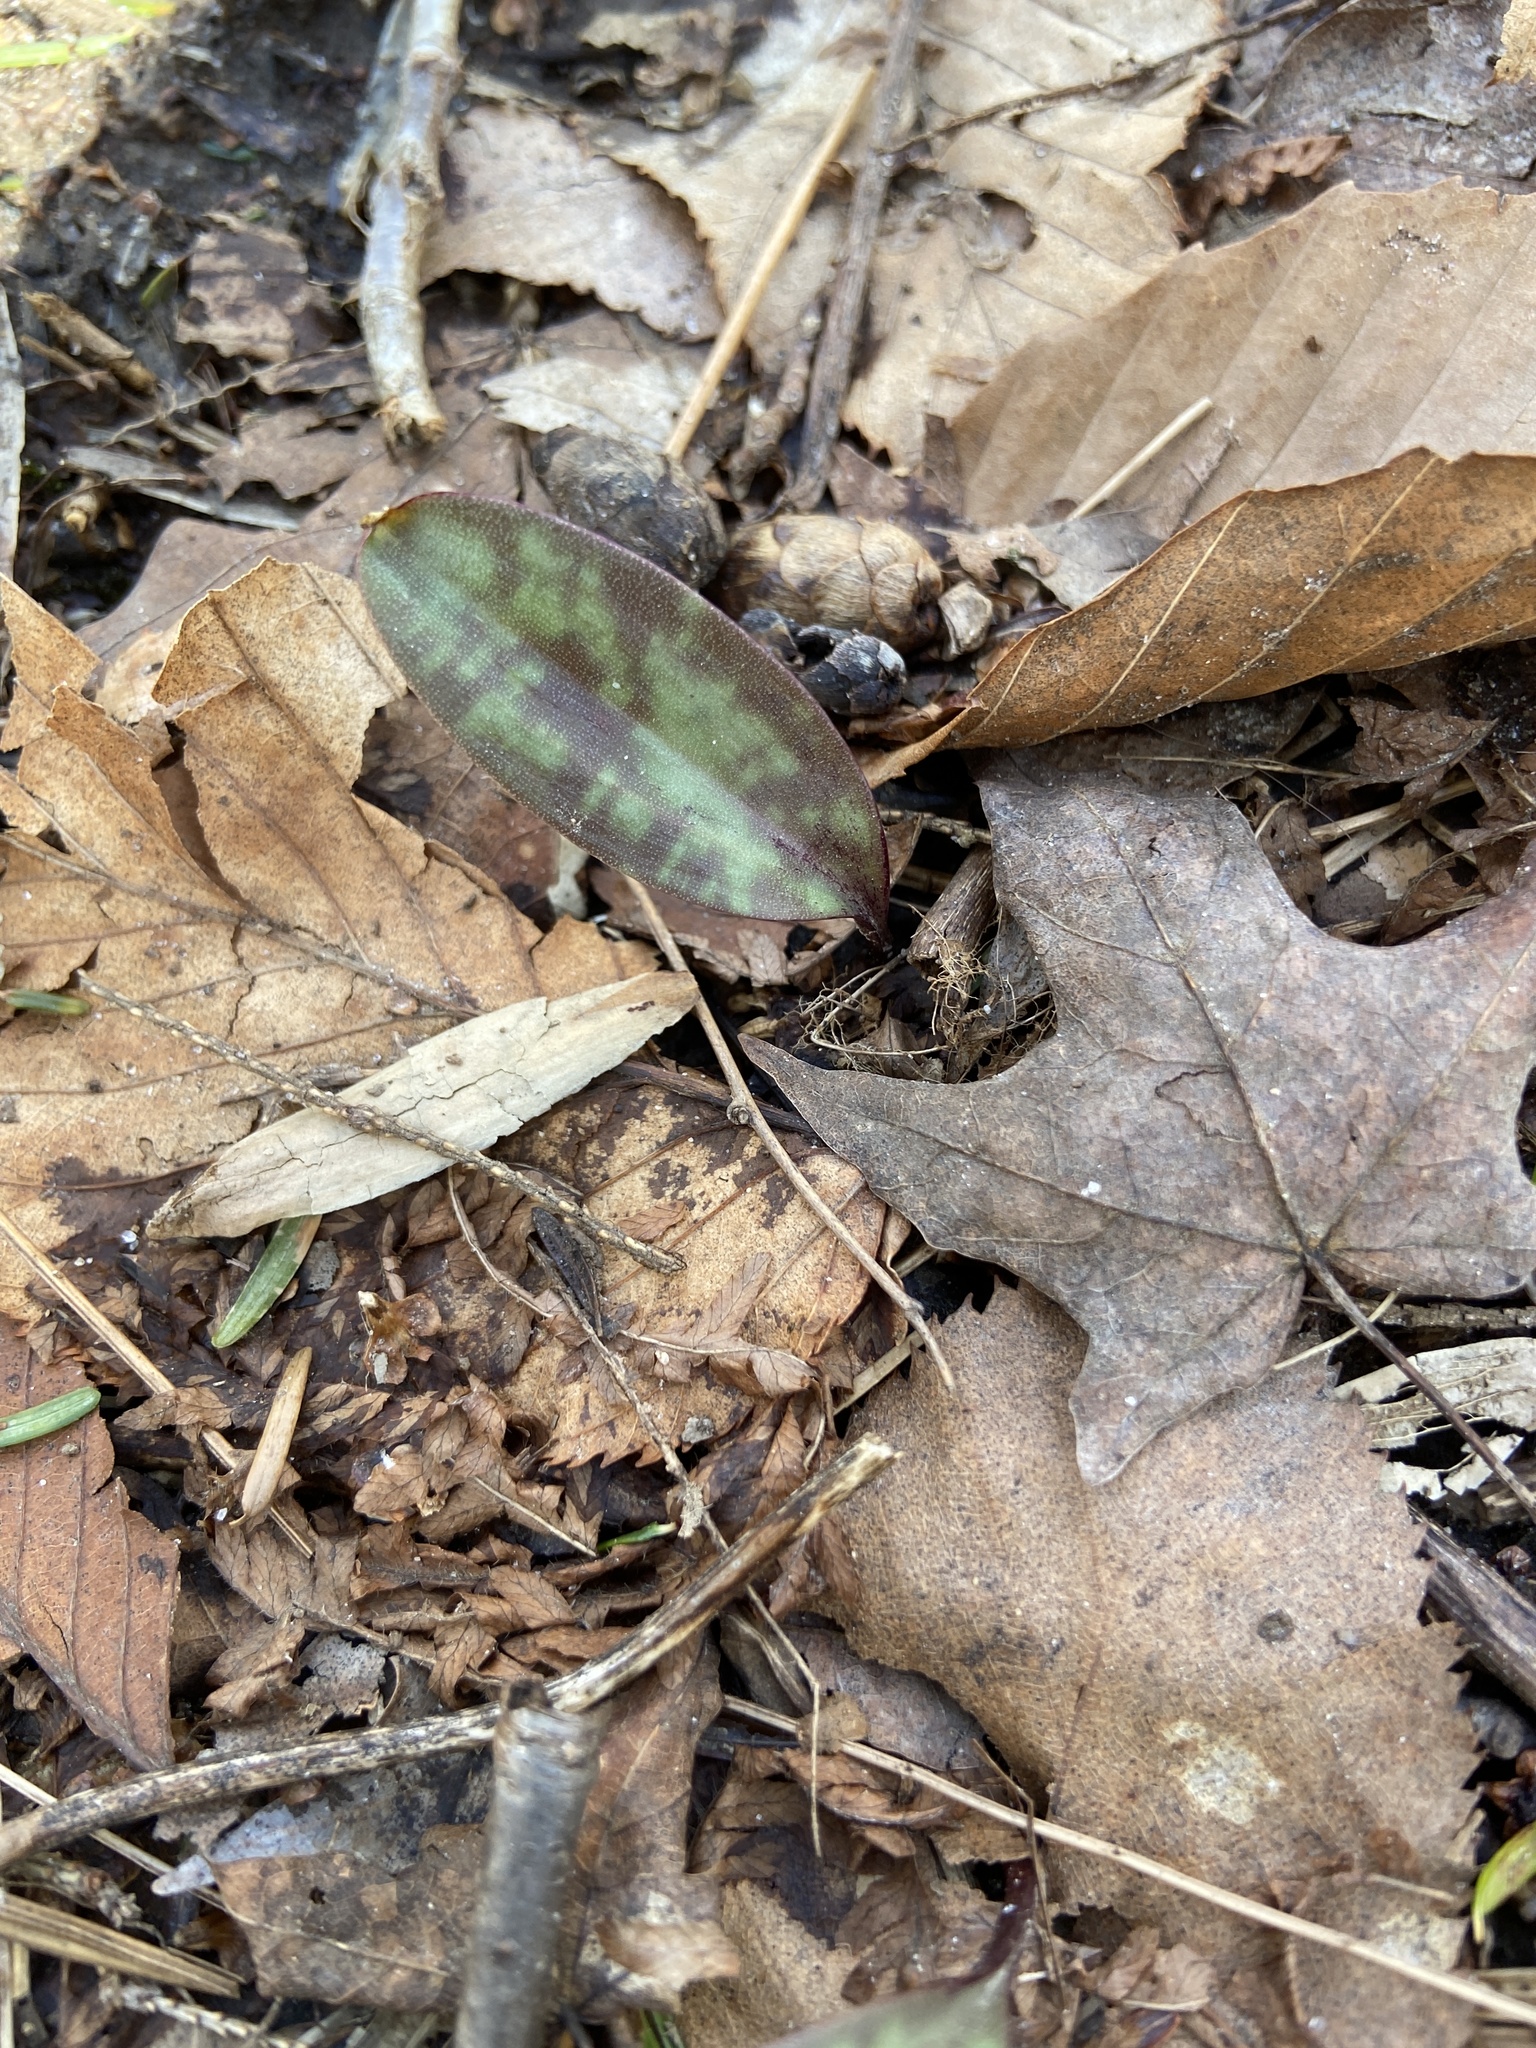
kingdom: Plantae
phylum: Tracheophyta
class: Liliopsida
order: Liliales
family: Liliaceae
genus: Erythronium
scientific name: Erythronium americanum
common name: Yellow adder's-tongue
